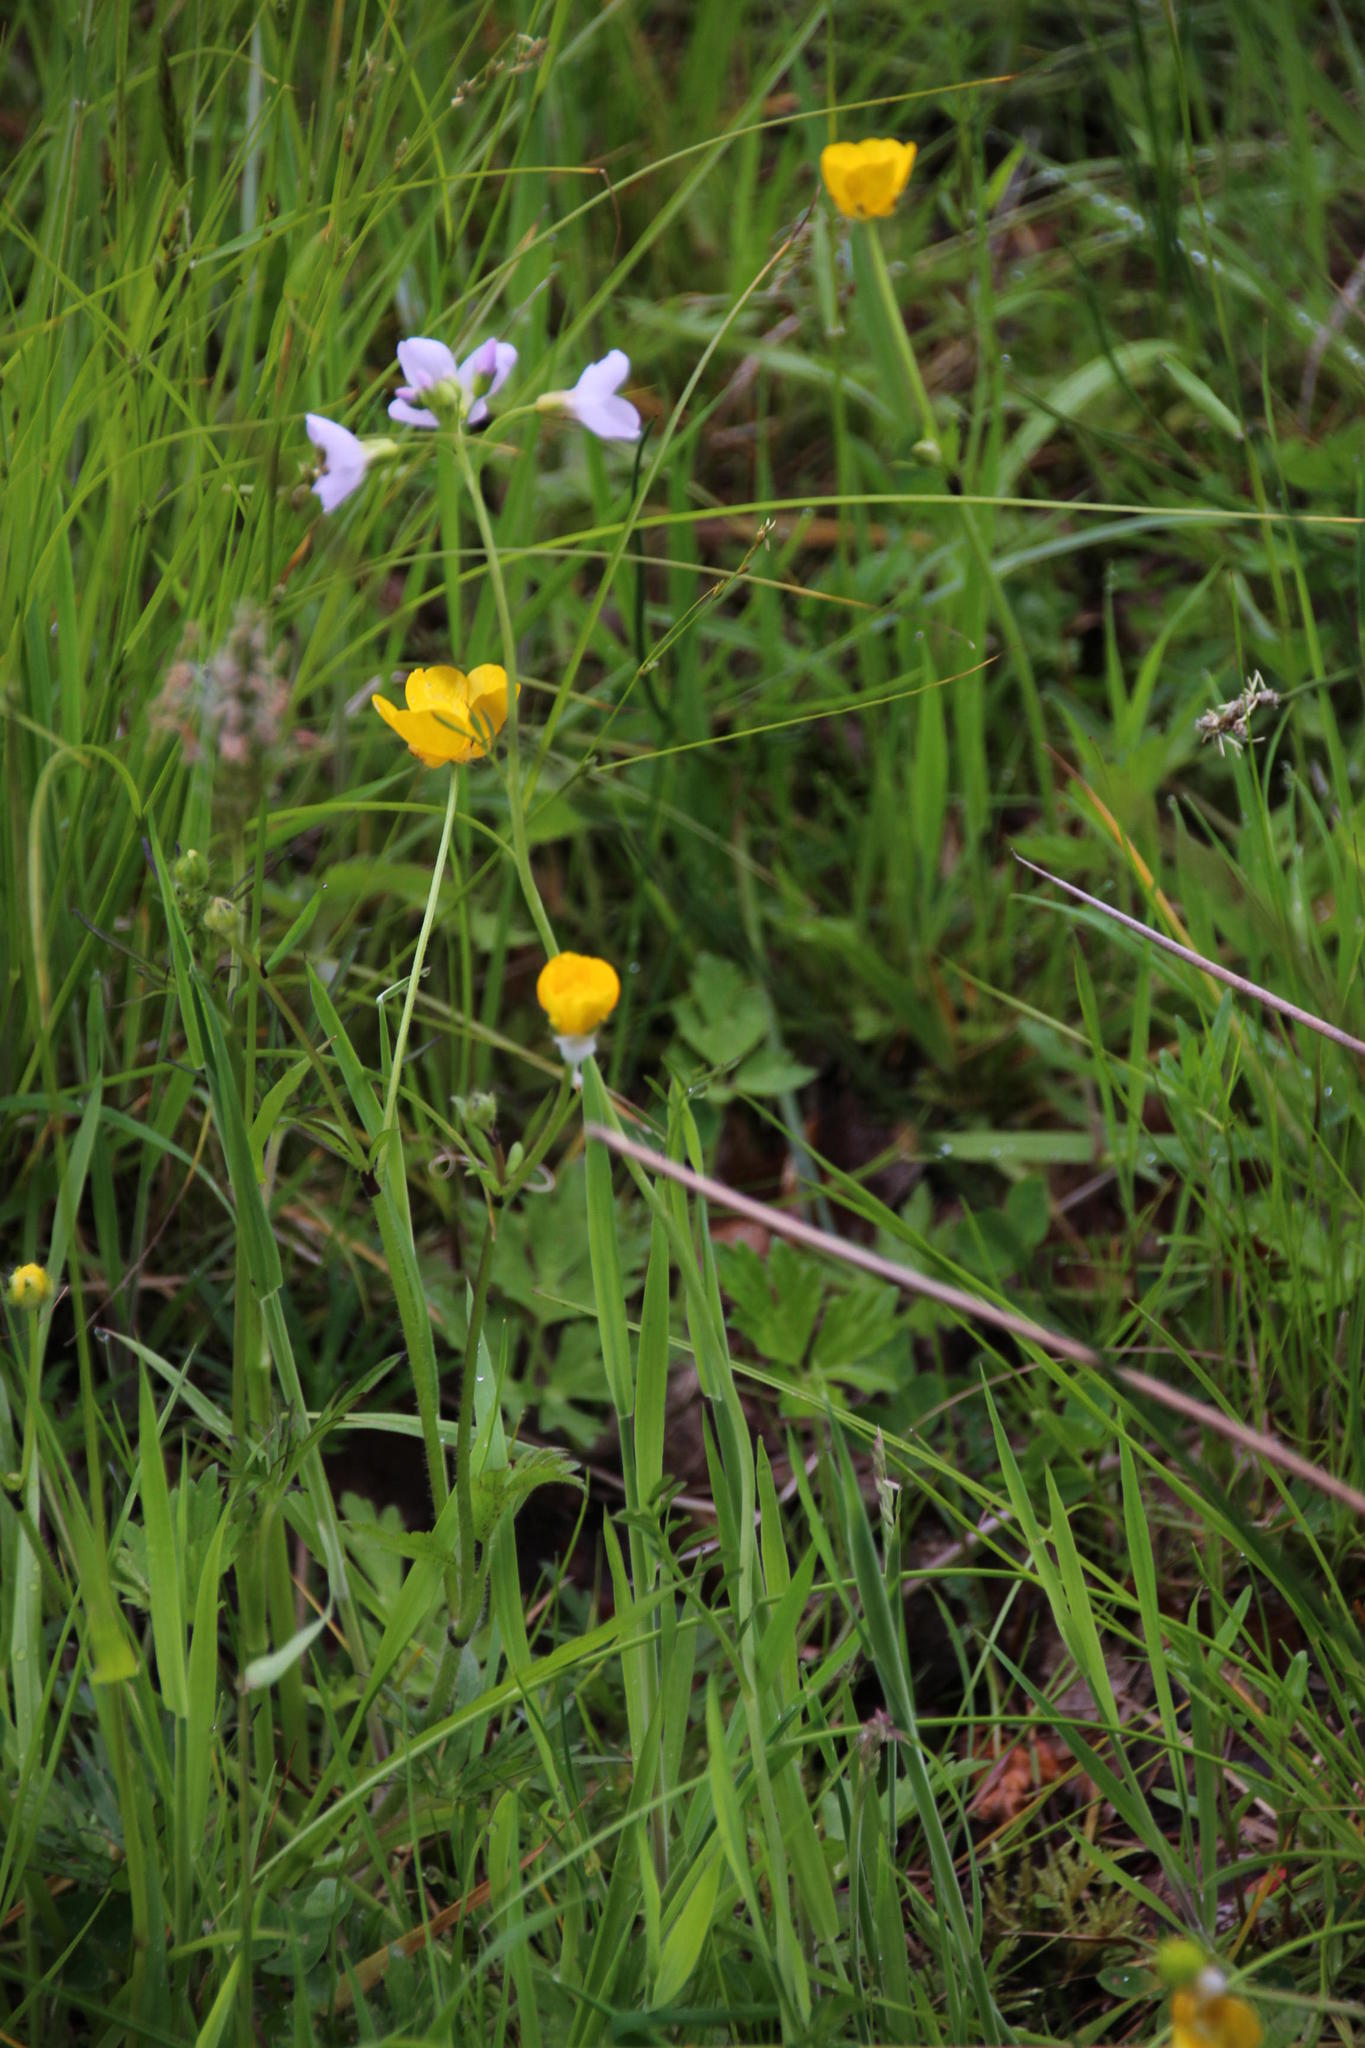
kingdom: Plantae
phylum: Tracheophyta
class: Magnoliopsida
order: Brassicales
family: Brassicaceae
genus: Cardamine
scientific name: Cardamine pratensis
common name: Cuckoo flower
